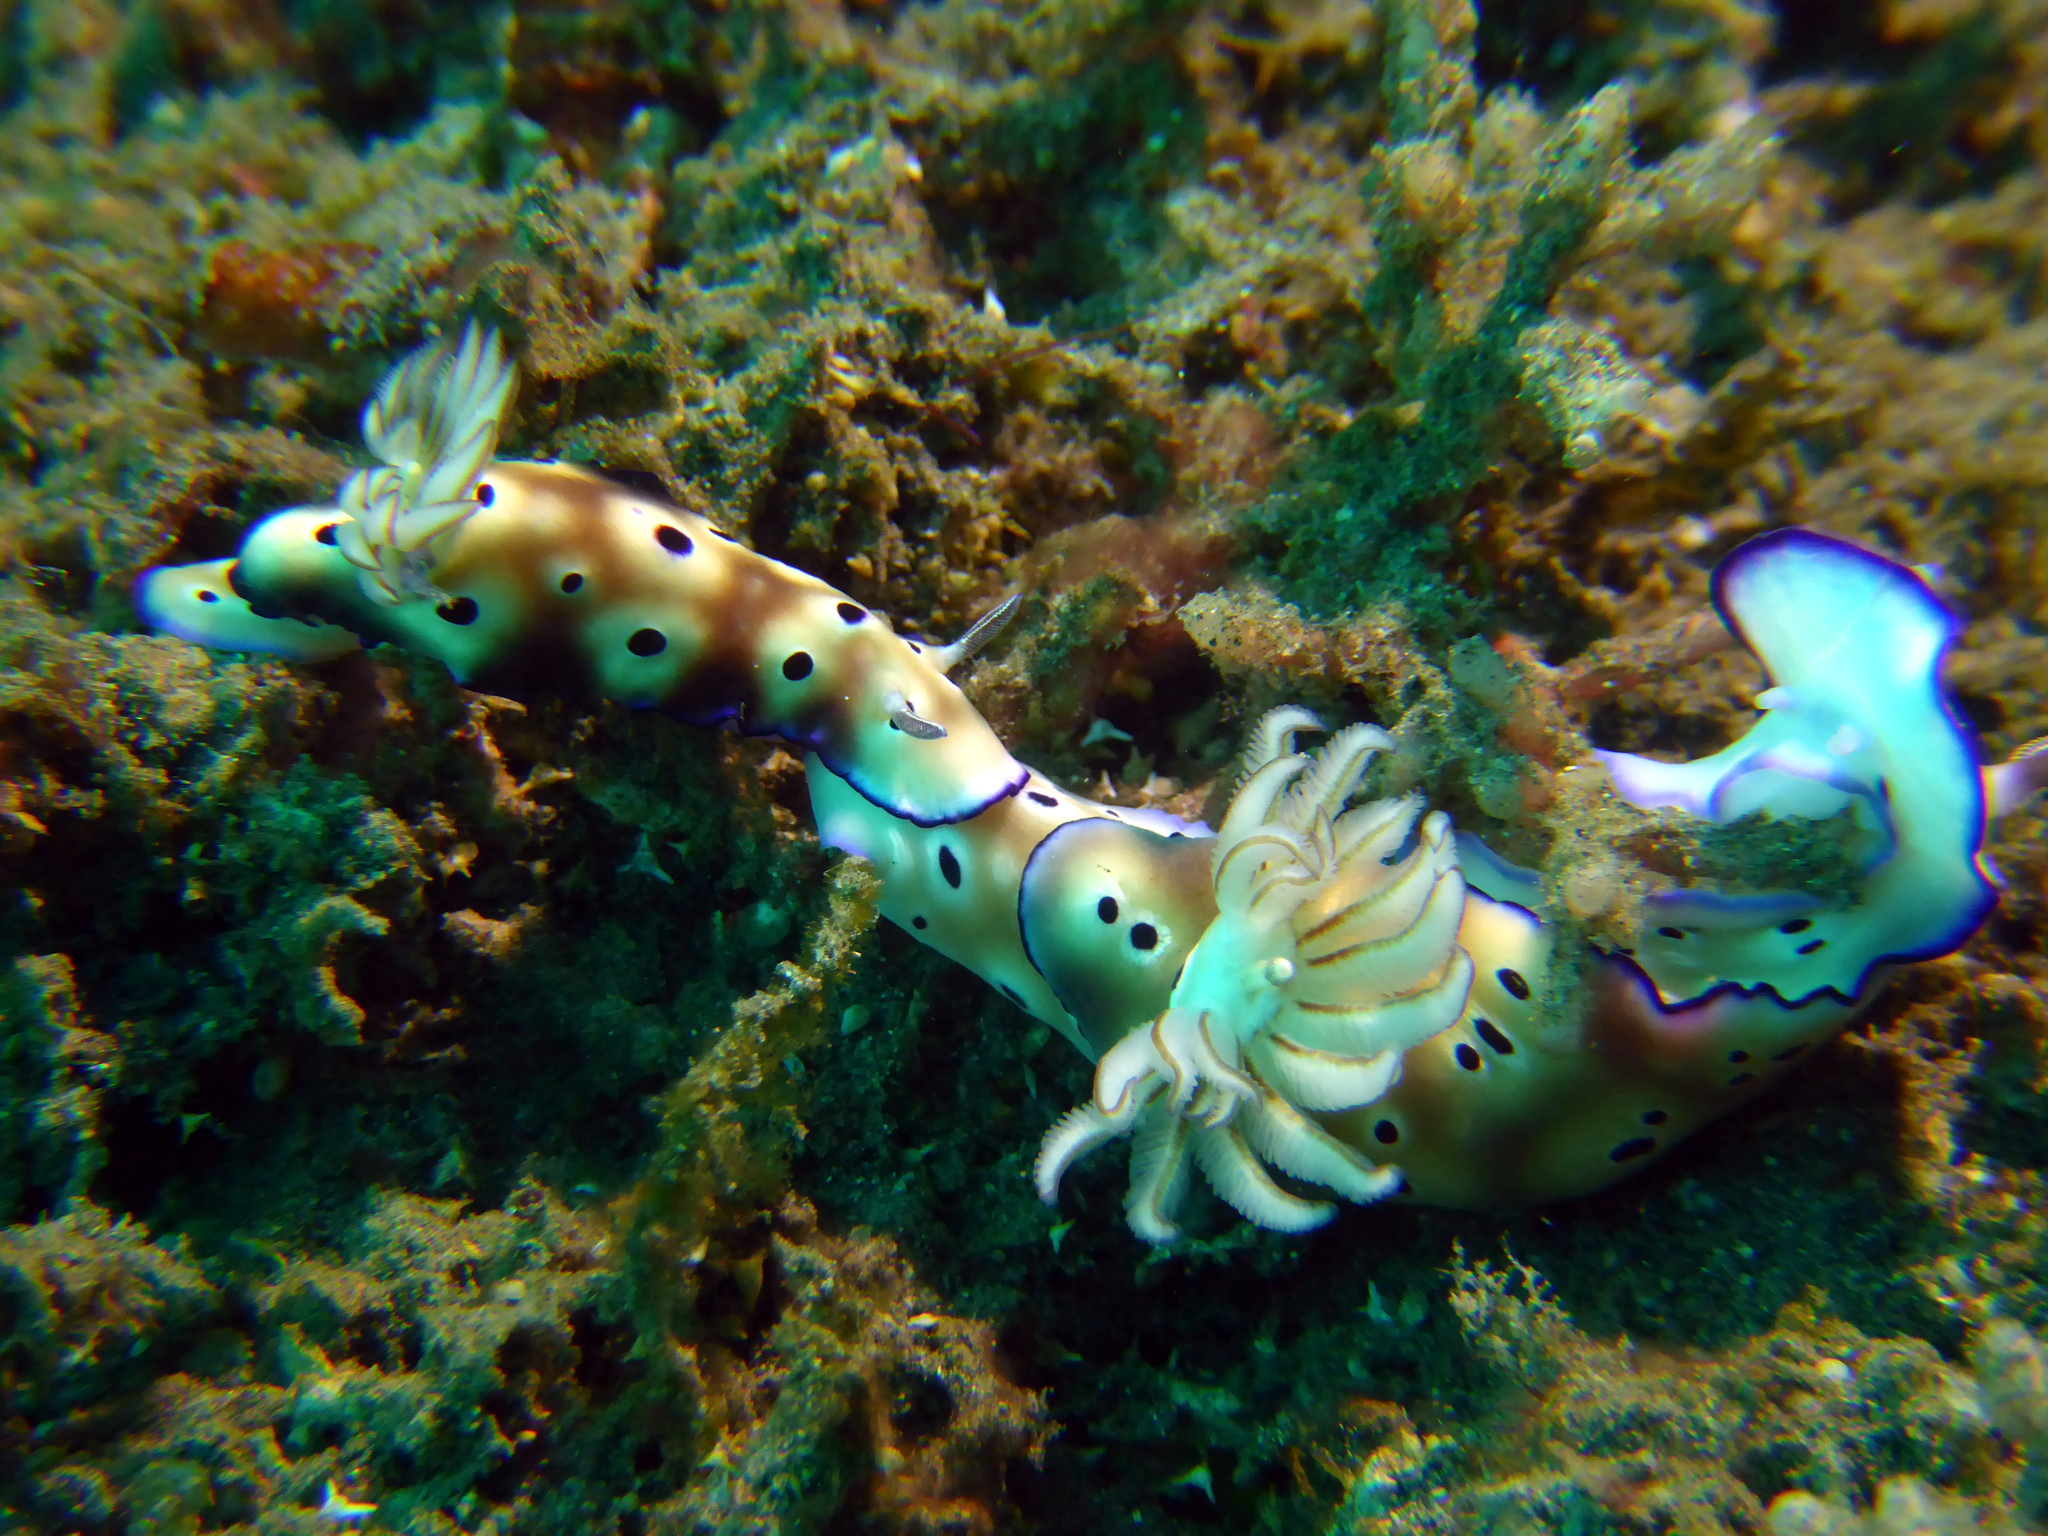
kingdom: Animalia
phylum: Mollusca
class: Gastropoda
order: Nudibranchia
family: Chromodorididae
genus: Hypselodoris
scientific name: Hypselodoris tryoni
